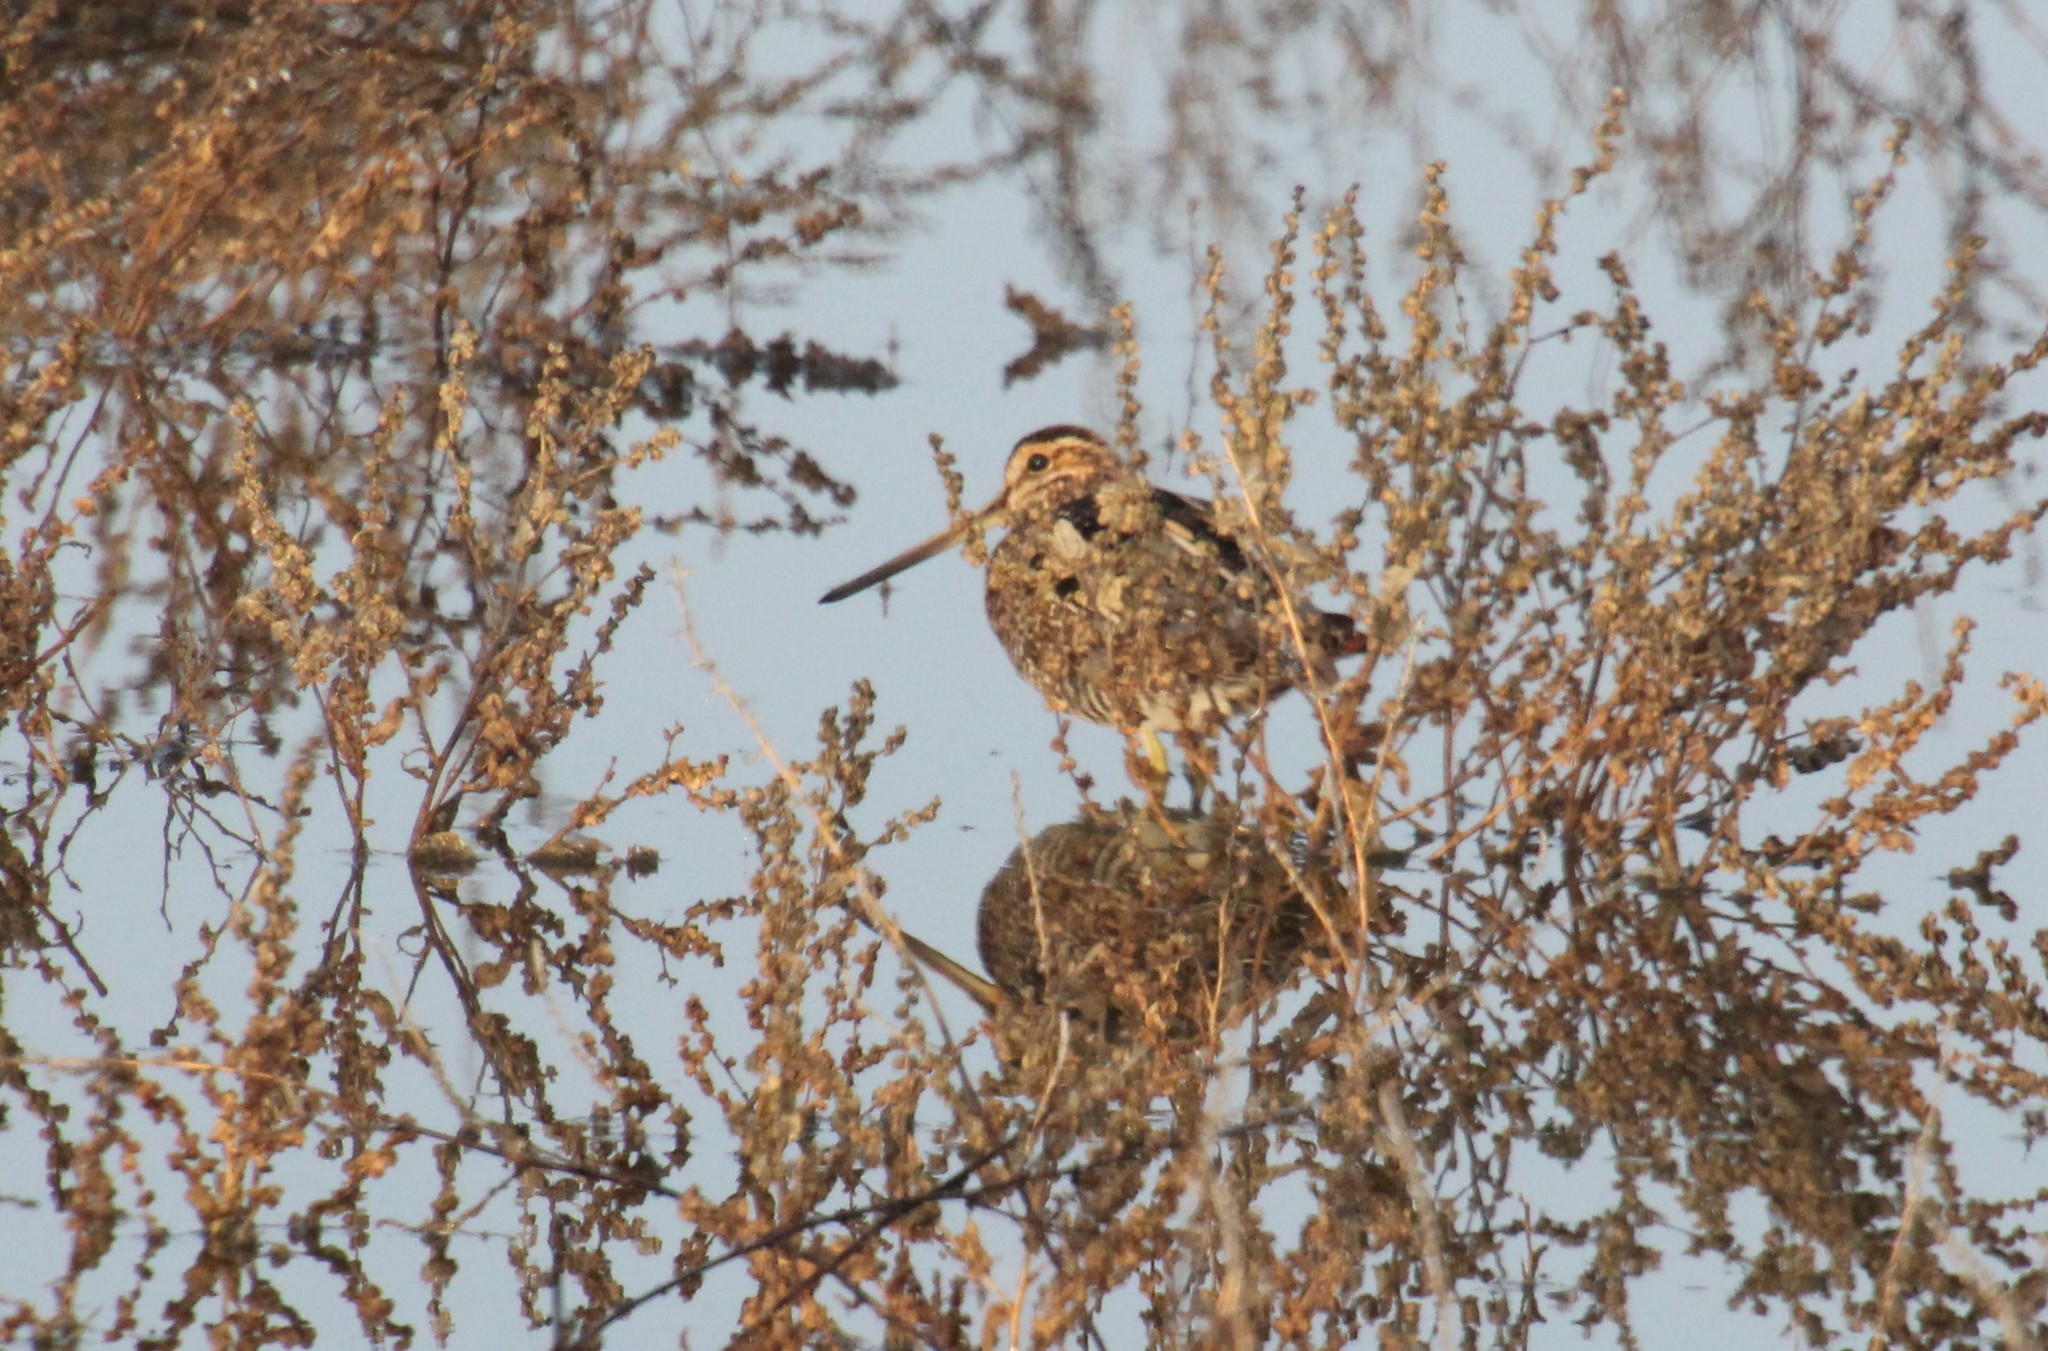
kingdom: Animalia
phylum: Chordata
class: Aves
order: Charadriiformes
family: Scolopacidae
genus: Gallinago
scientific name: Gallinago delicata
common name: Wilson's snipe
